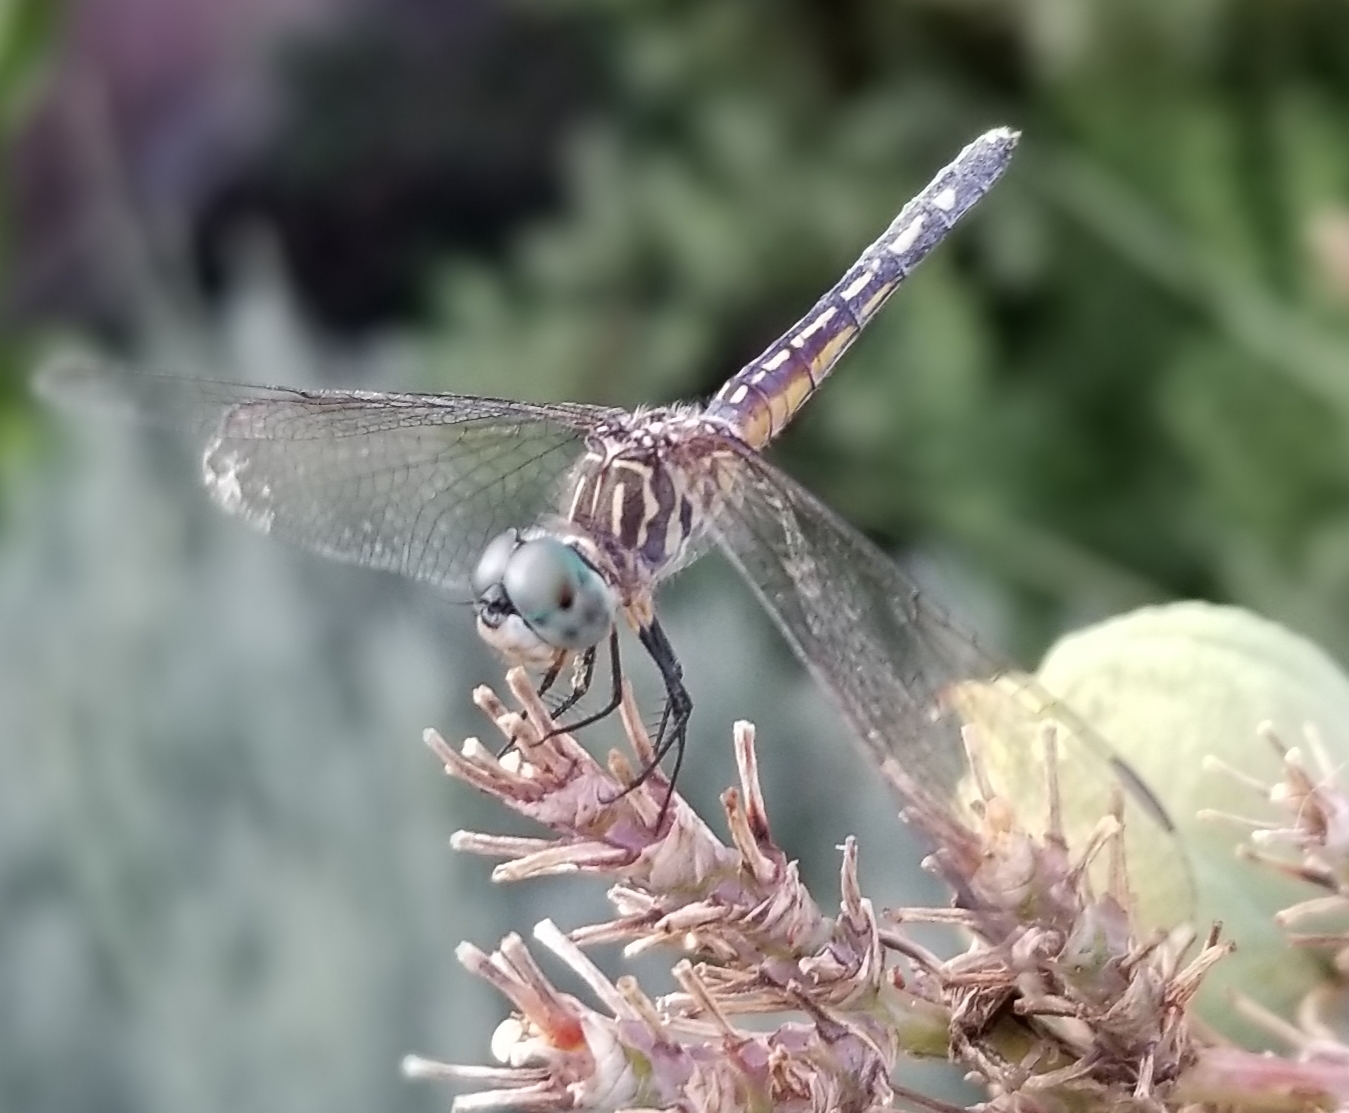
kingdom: Animalia
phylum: Arthropoda
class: Insecta
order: Odonata
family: Libellulidae
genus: Pachydiplax
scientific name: Pachydiplax longipennis
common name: Blue dasher
